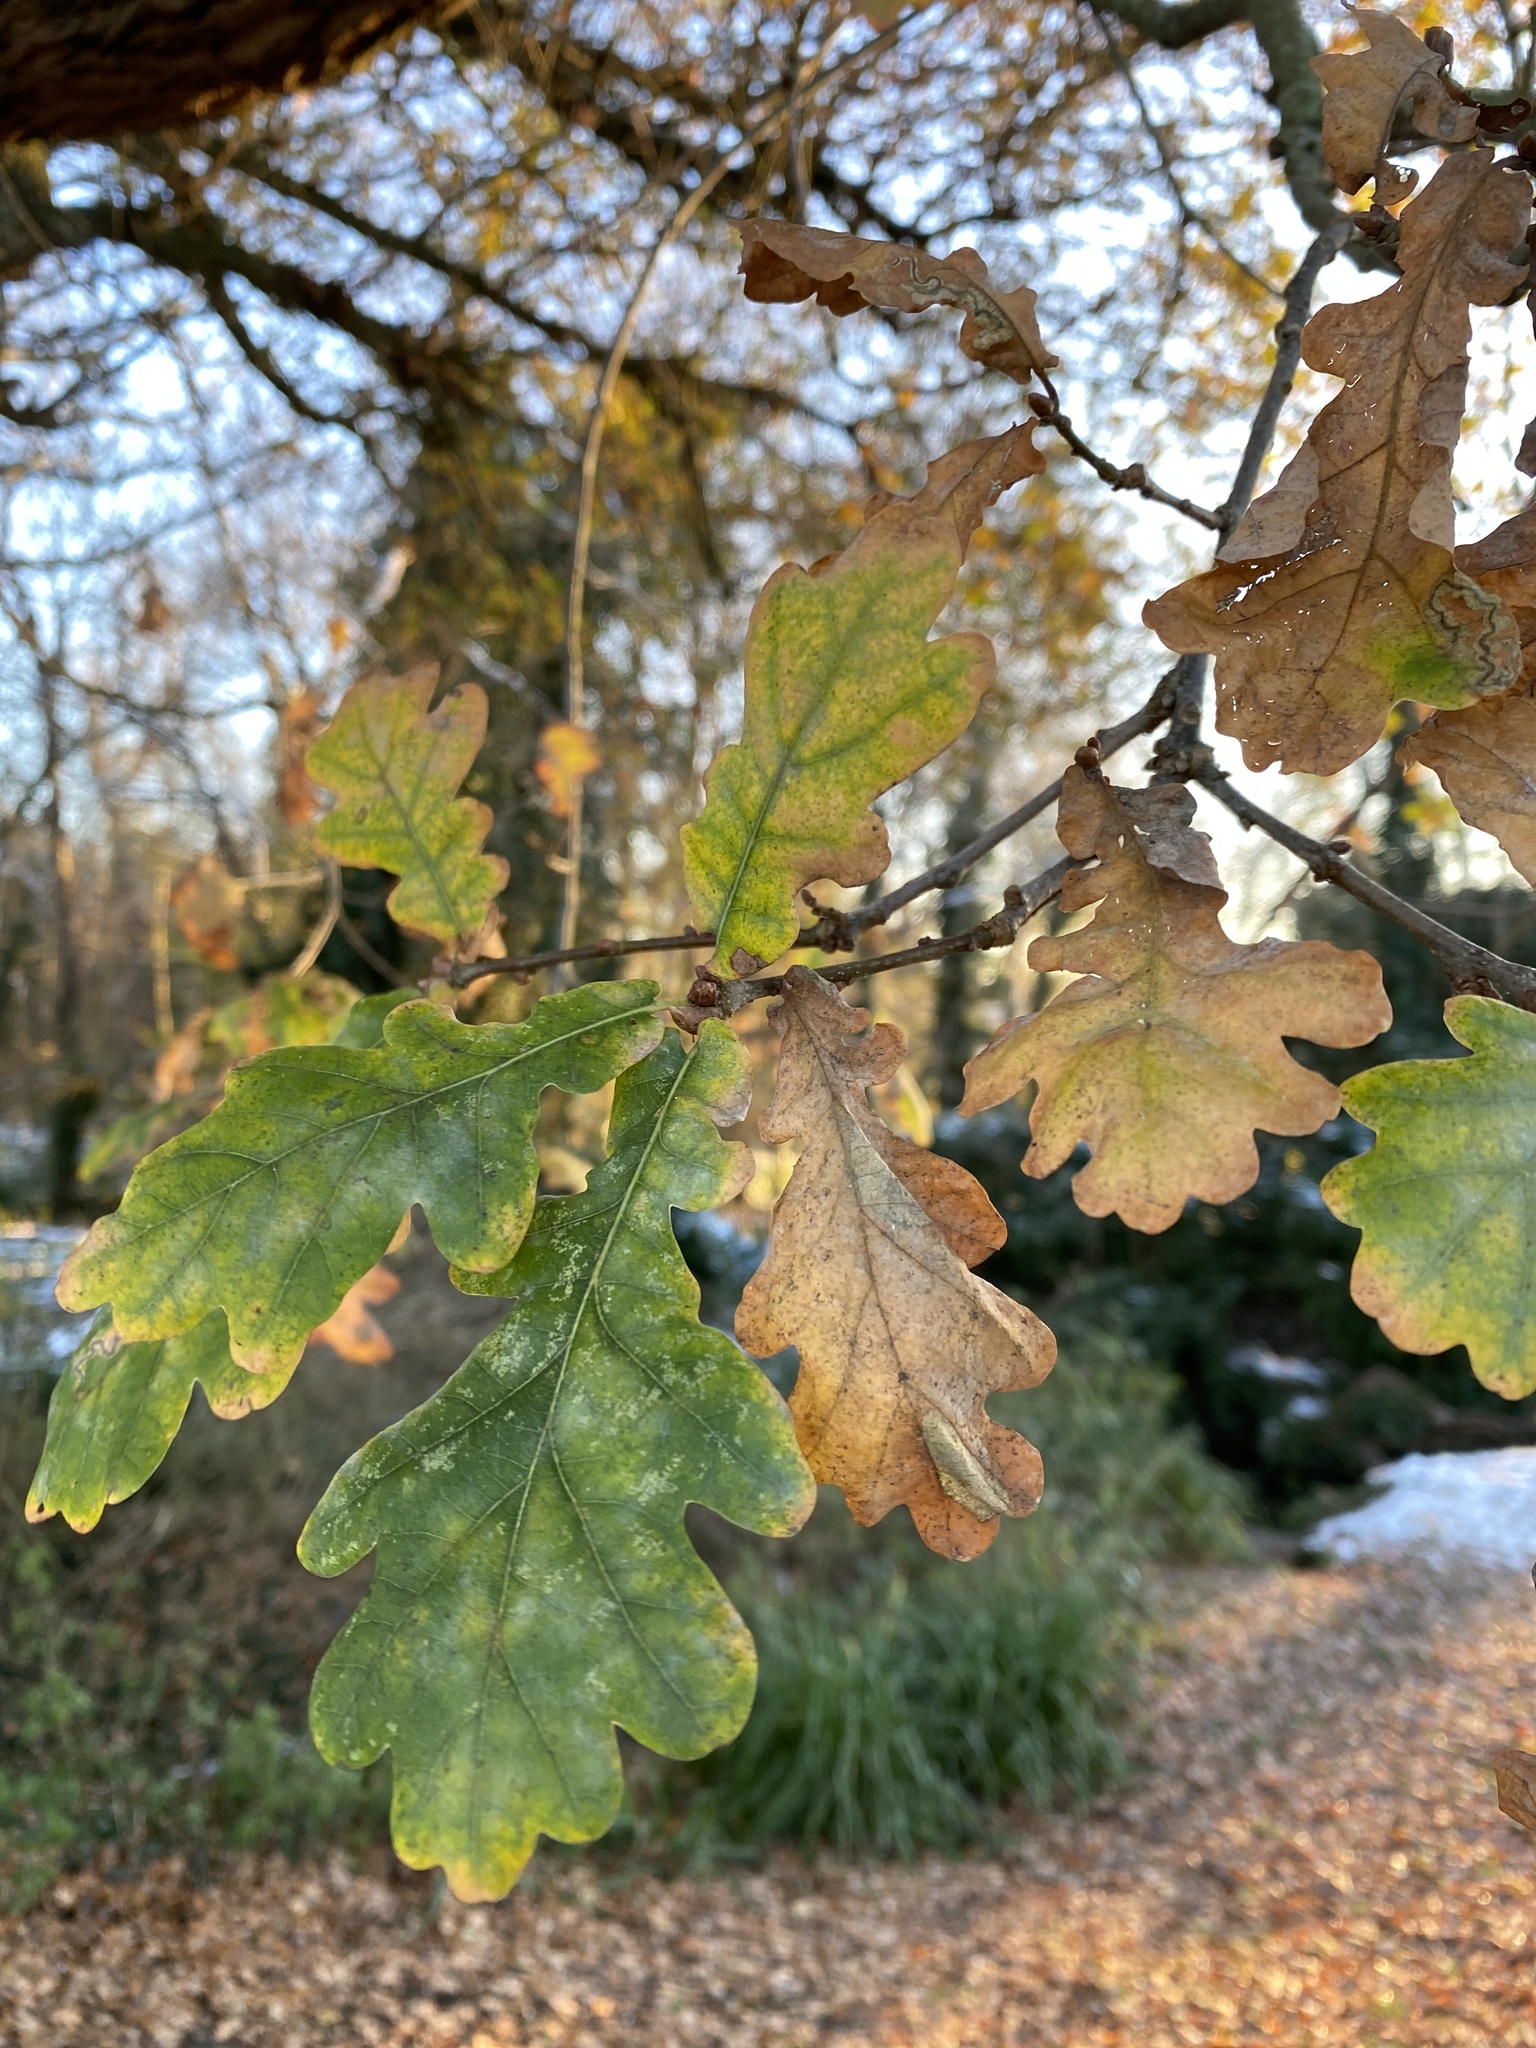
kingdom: Plantae
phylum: Tracheophyta
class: Magnoliopsida
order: Fagales
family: Fagaceae
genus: Quercus
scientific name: Quercus robur
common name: Pedunculate oak
